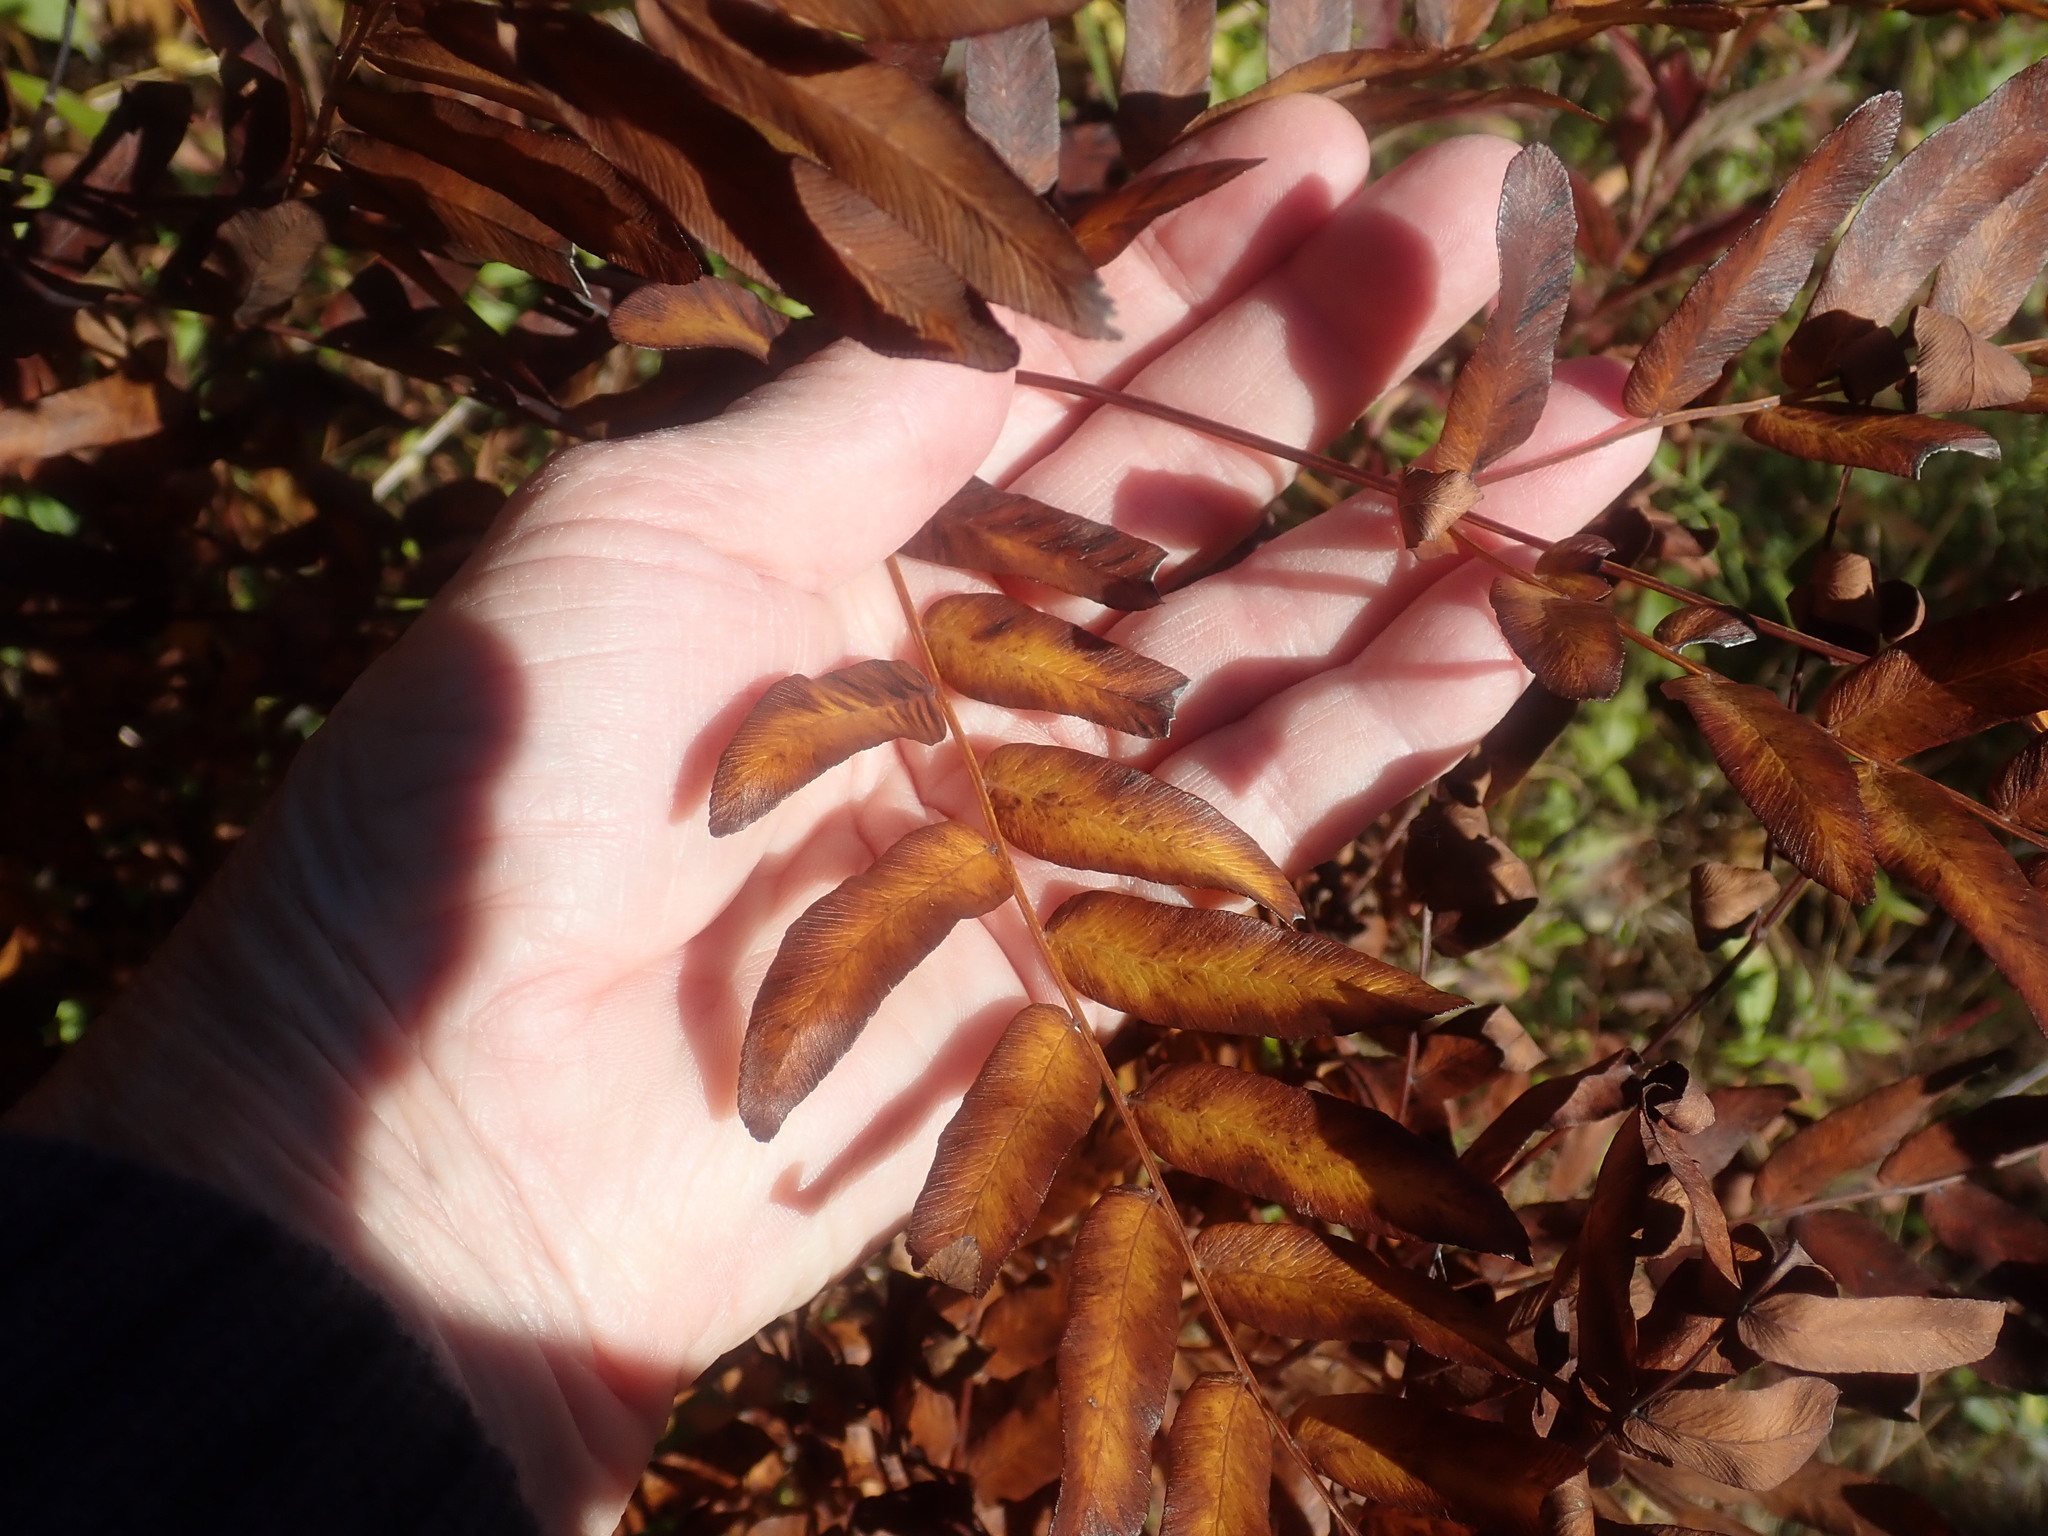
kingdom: Plantae
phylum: Tracheophyta
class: Polypodiopsida
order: Osmundales
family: Osmundaceae
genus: Osmunda
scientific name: Osmunda spectabilis
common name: American royal fern
